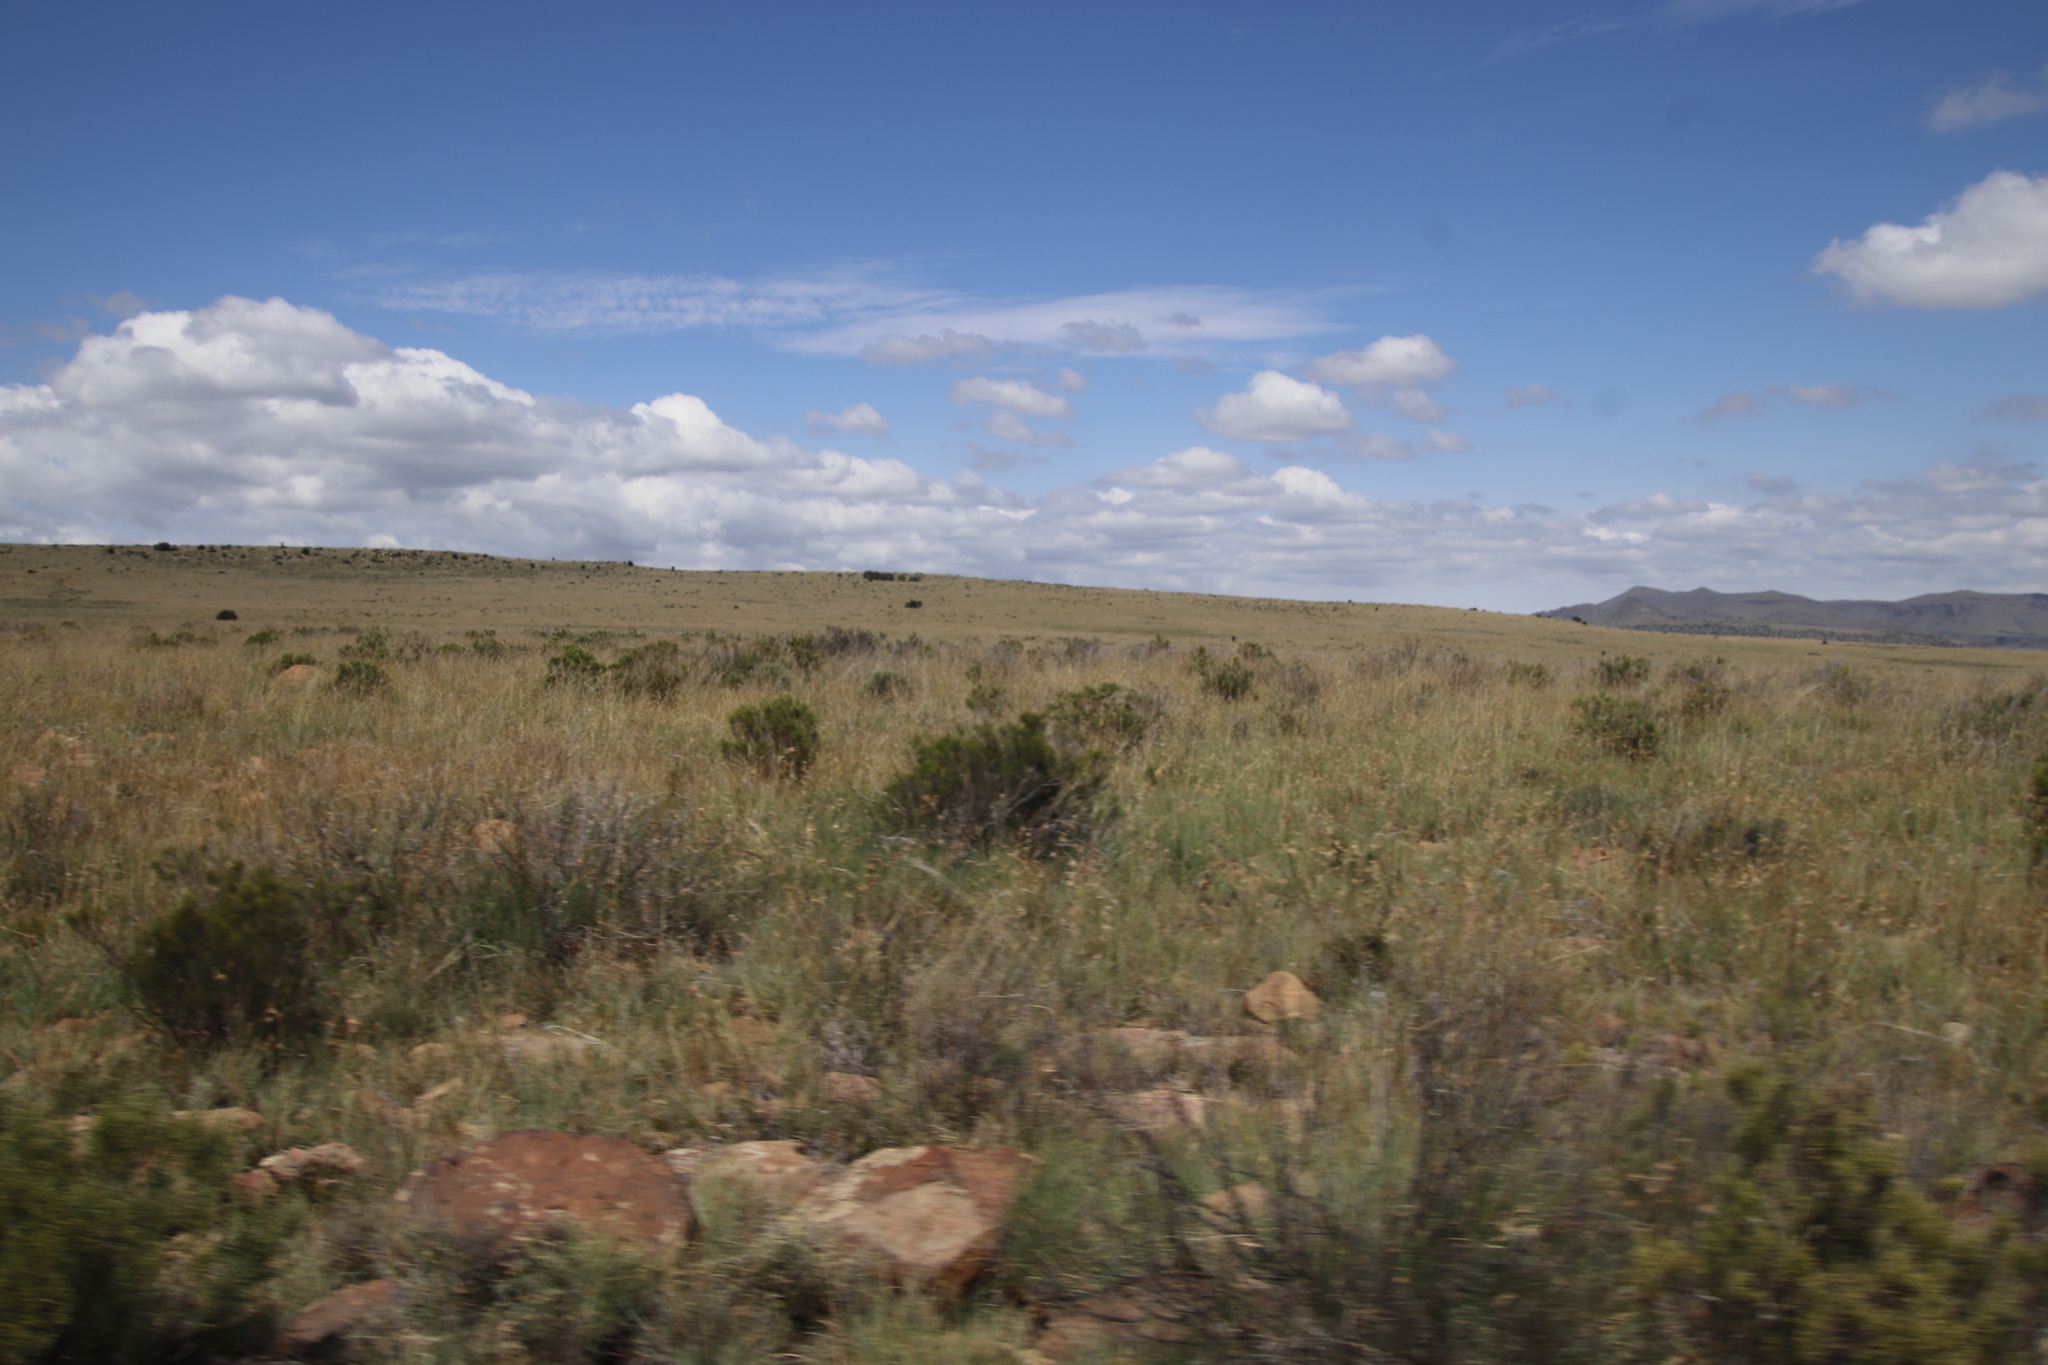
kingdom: Plantae
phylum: Tracheophyta
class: Magnoliopsida
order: Asterales
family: Asteraceae
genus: Dicerothamnus
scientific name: Dicerothamnus rhinocerotis
